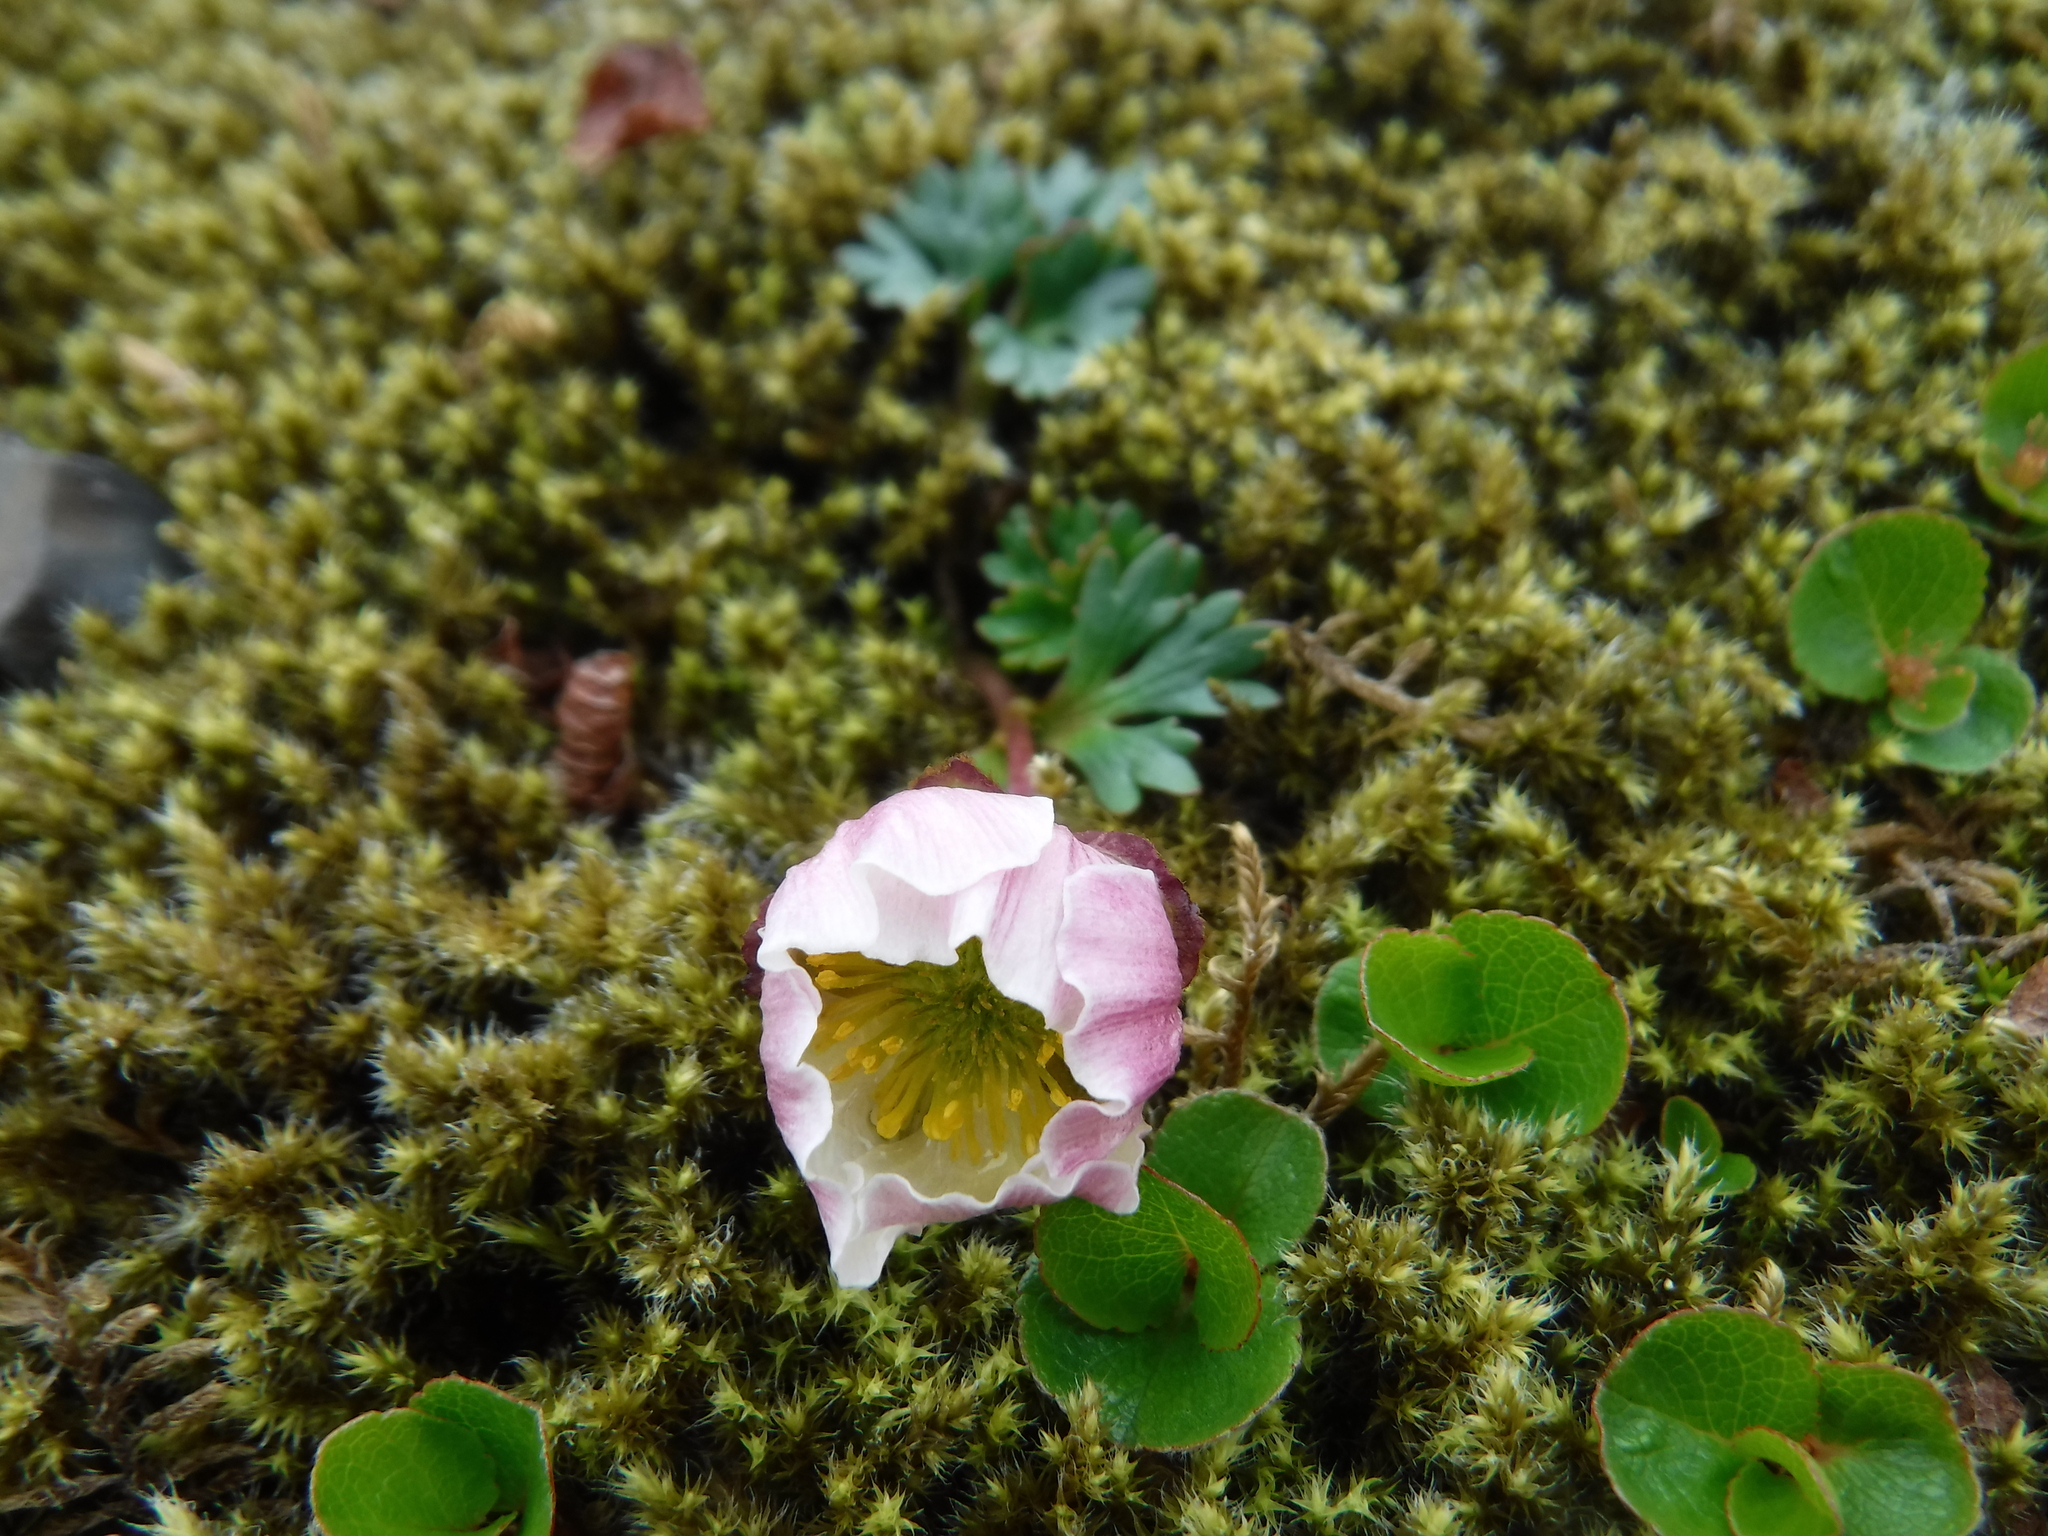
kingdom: Plantae
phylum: Tracheophyta
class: Magnoliopsida
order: Ranunculales
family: Ranunculaceae
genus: Ranunculus
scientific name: Ranunculus glacialis
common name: Glacier buttercup
